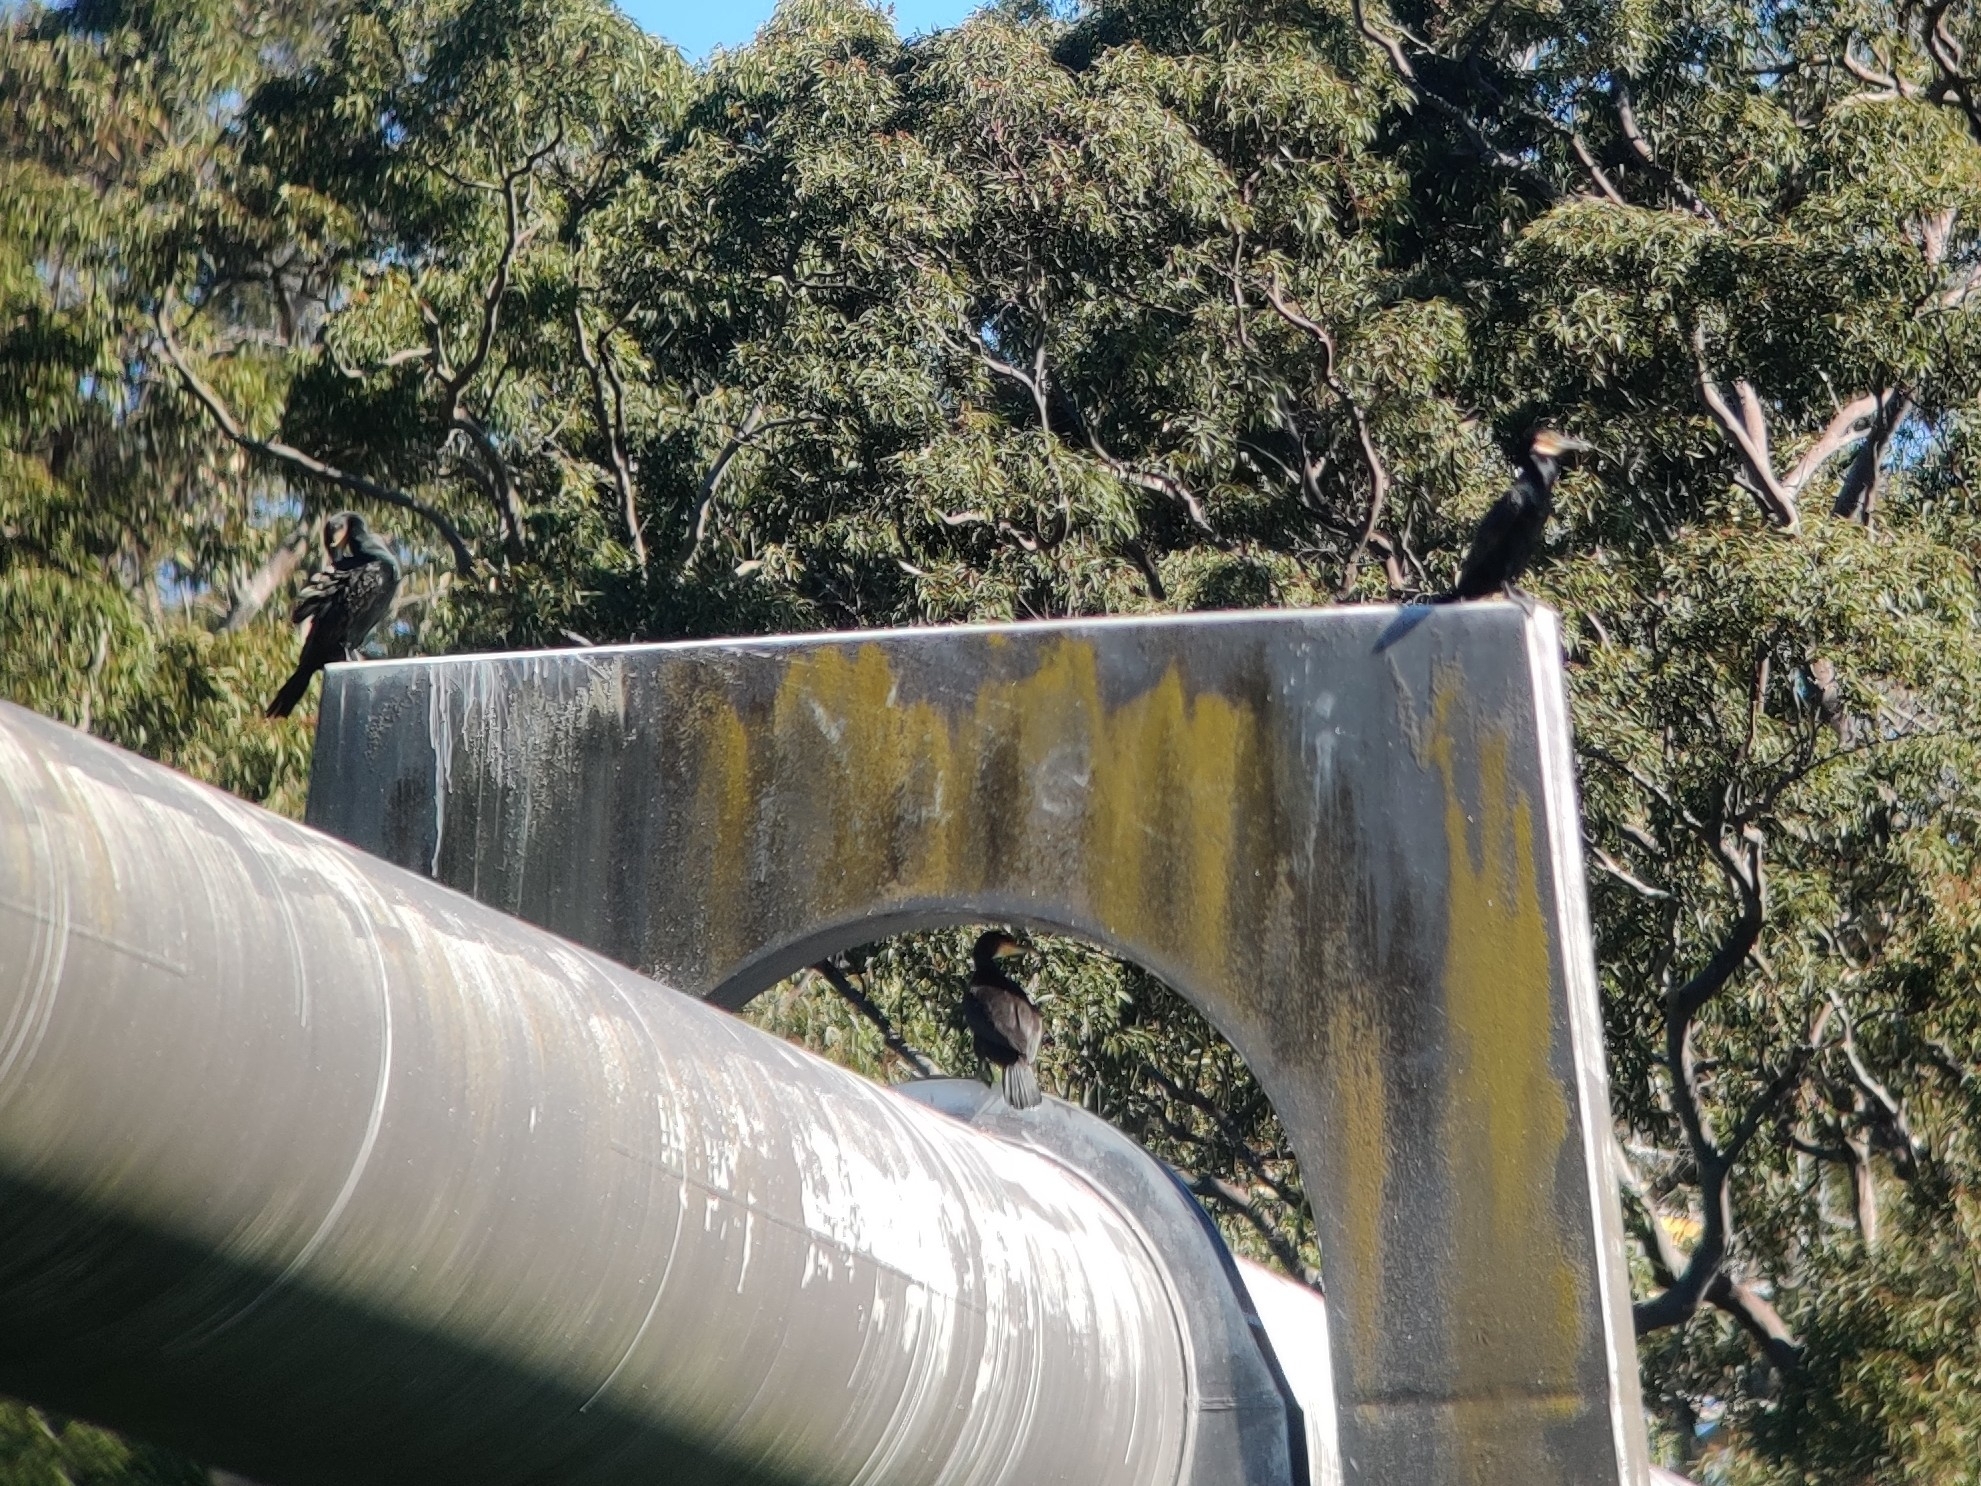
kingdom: Animalia
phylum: Chordata
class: Aves
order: Suliformes
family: Phalacrocoracidae
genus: Phalacrocorax
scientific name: Phalacrocorax carbo
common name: Great cormorant
